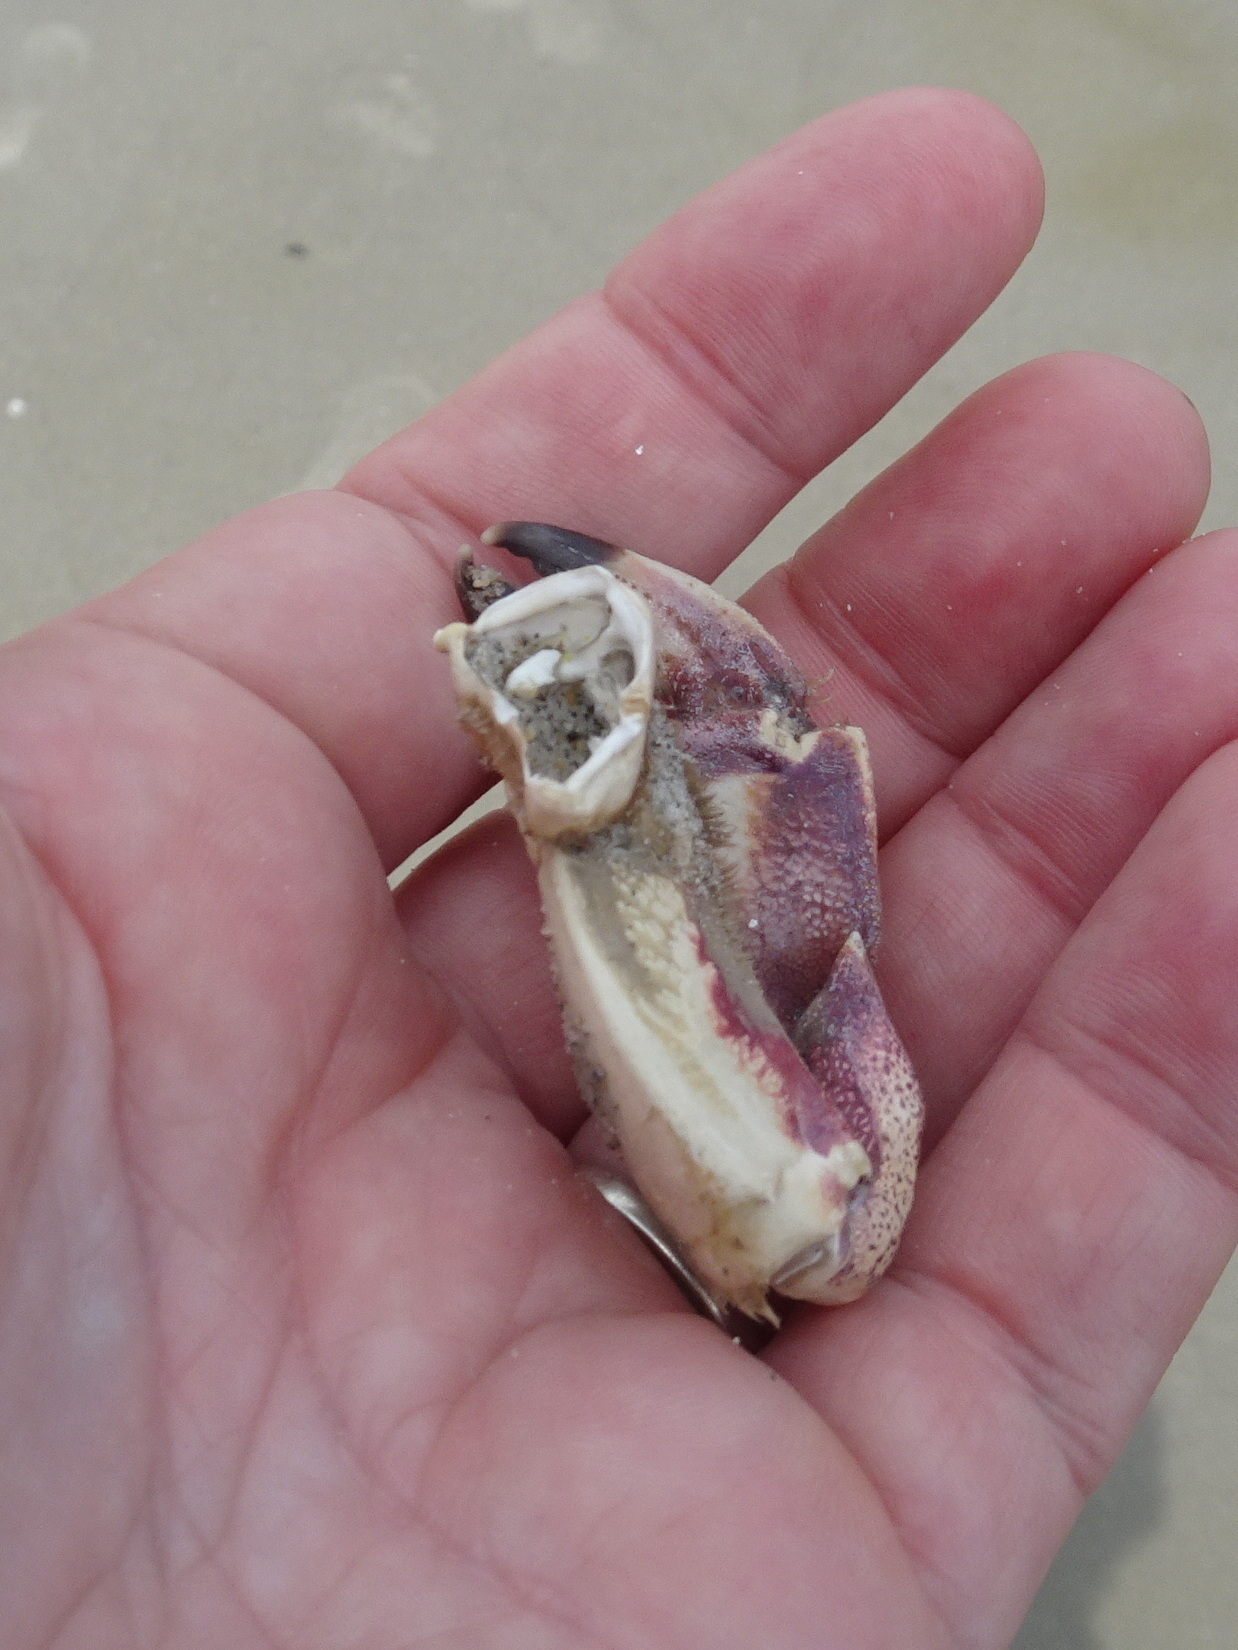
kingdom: Animalia
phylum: Arthropoda
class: Malacostraca
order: Decapoda
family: Cancridae
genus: Cancer
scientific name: Cancer irroratus
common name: Atlantic rock crab
